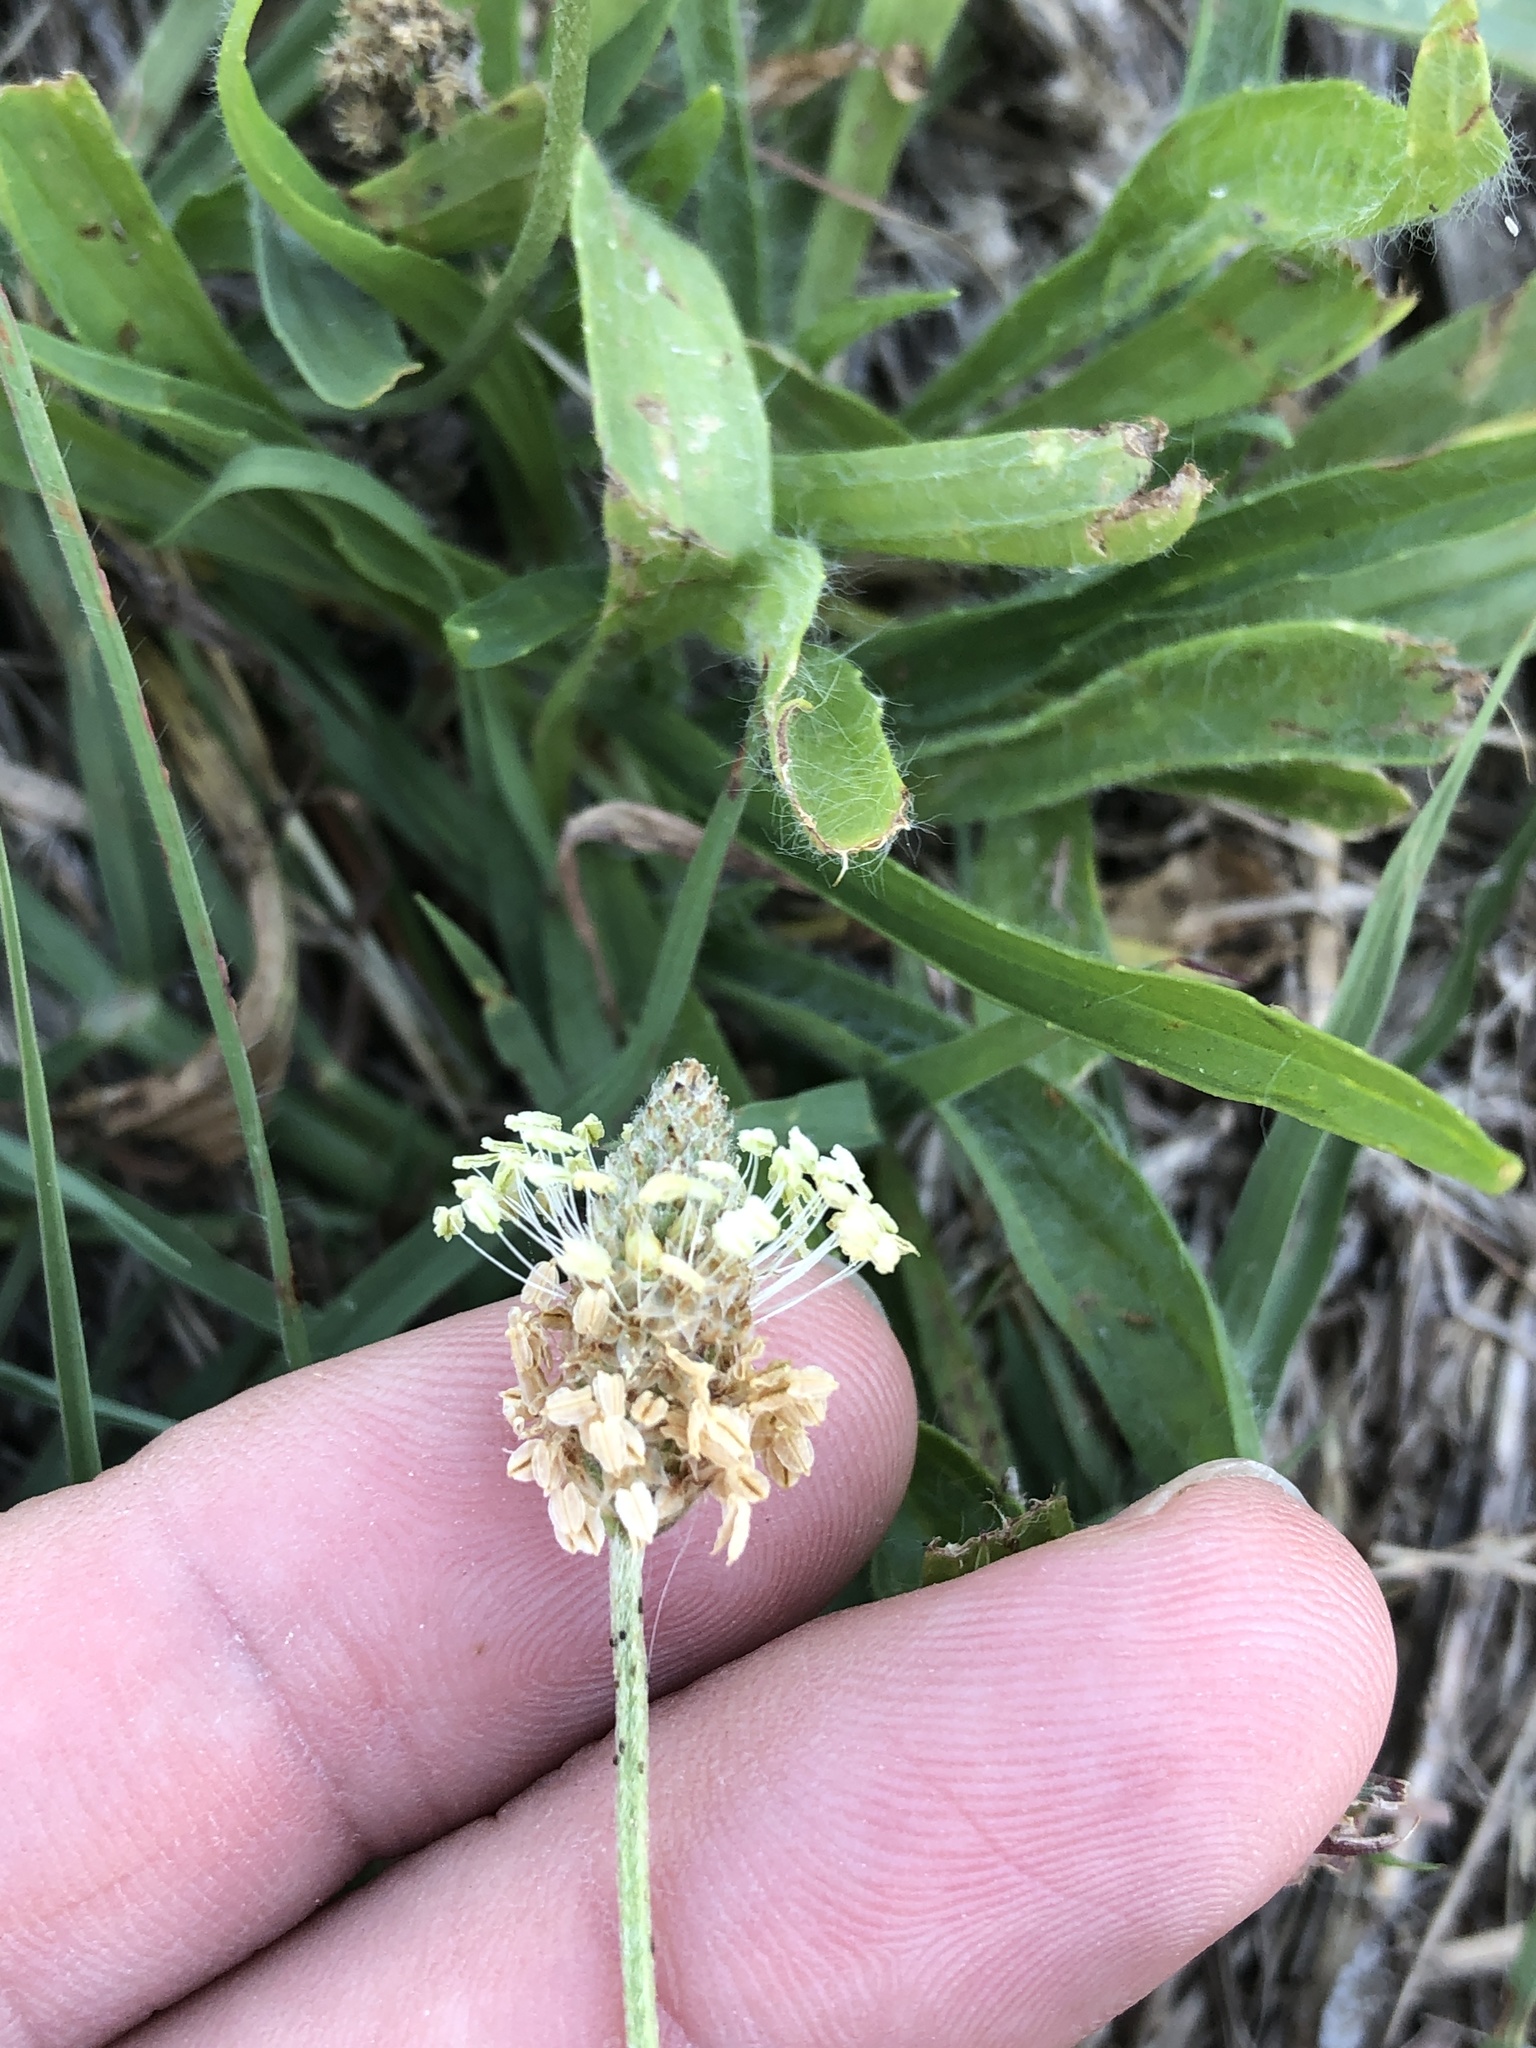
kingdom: Plantae
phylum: Tracheophyta
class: Magnoliopsida
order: Lamiales
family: Plantaginaceae
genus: Plantago
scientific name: Plantago lanceolata
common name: Ribwort plantain
